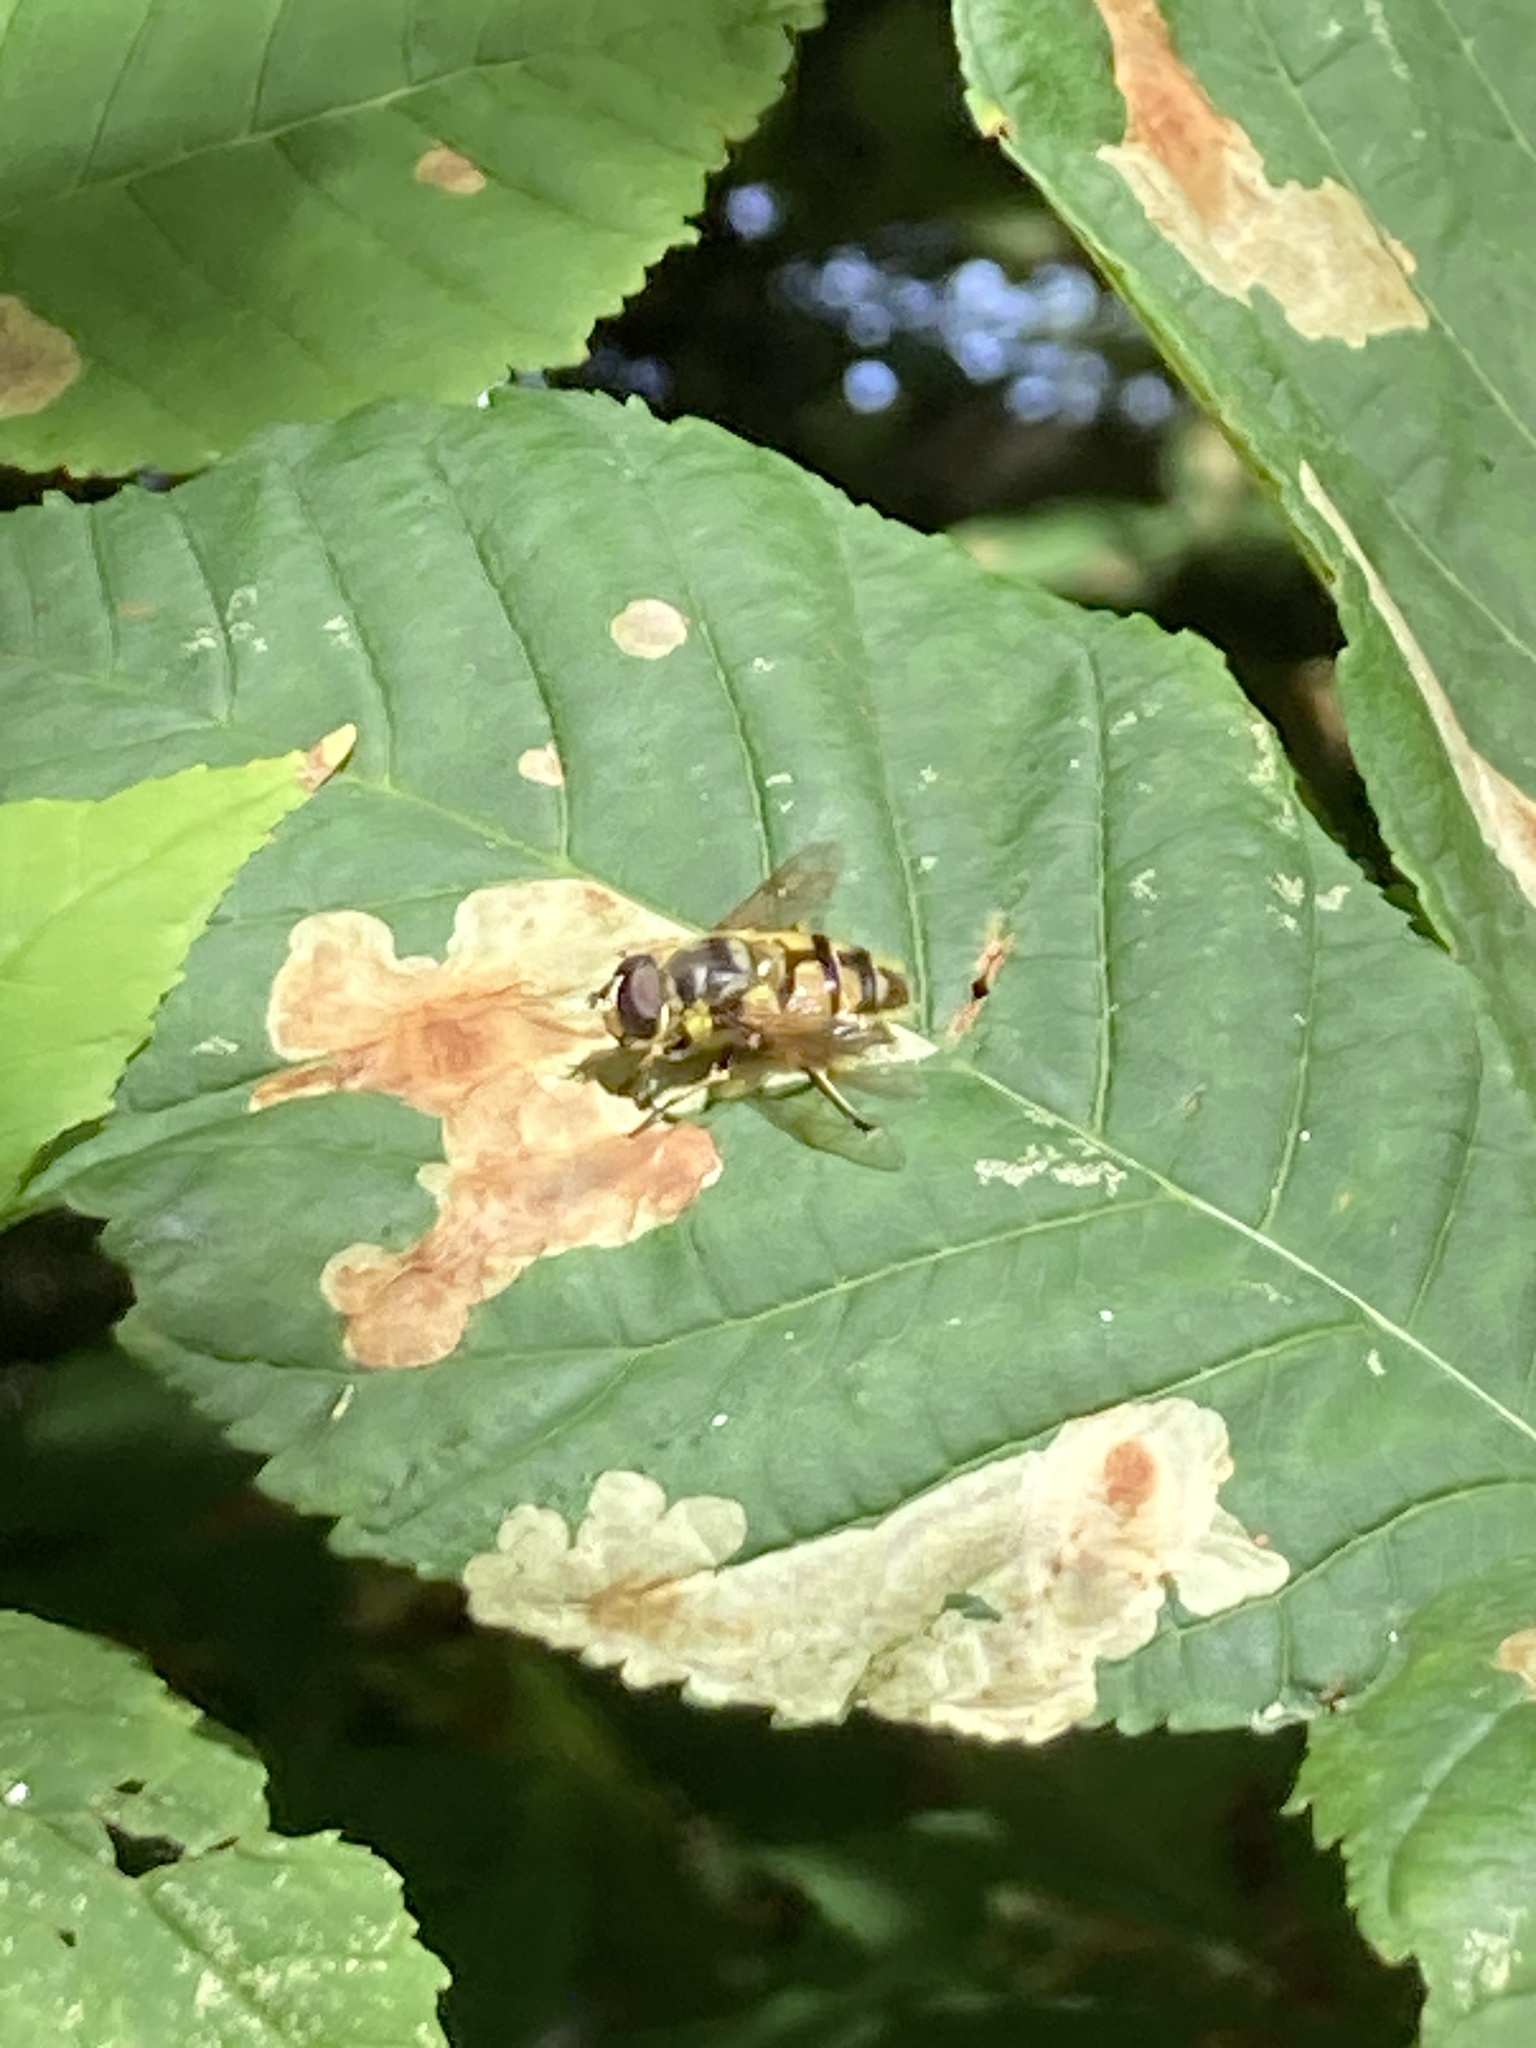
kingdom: Animalia
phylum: Arthropoda
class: Insecta
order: Diptera
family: Syrphidae
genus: Myathropa
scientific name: Myathropa florea
